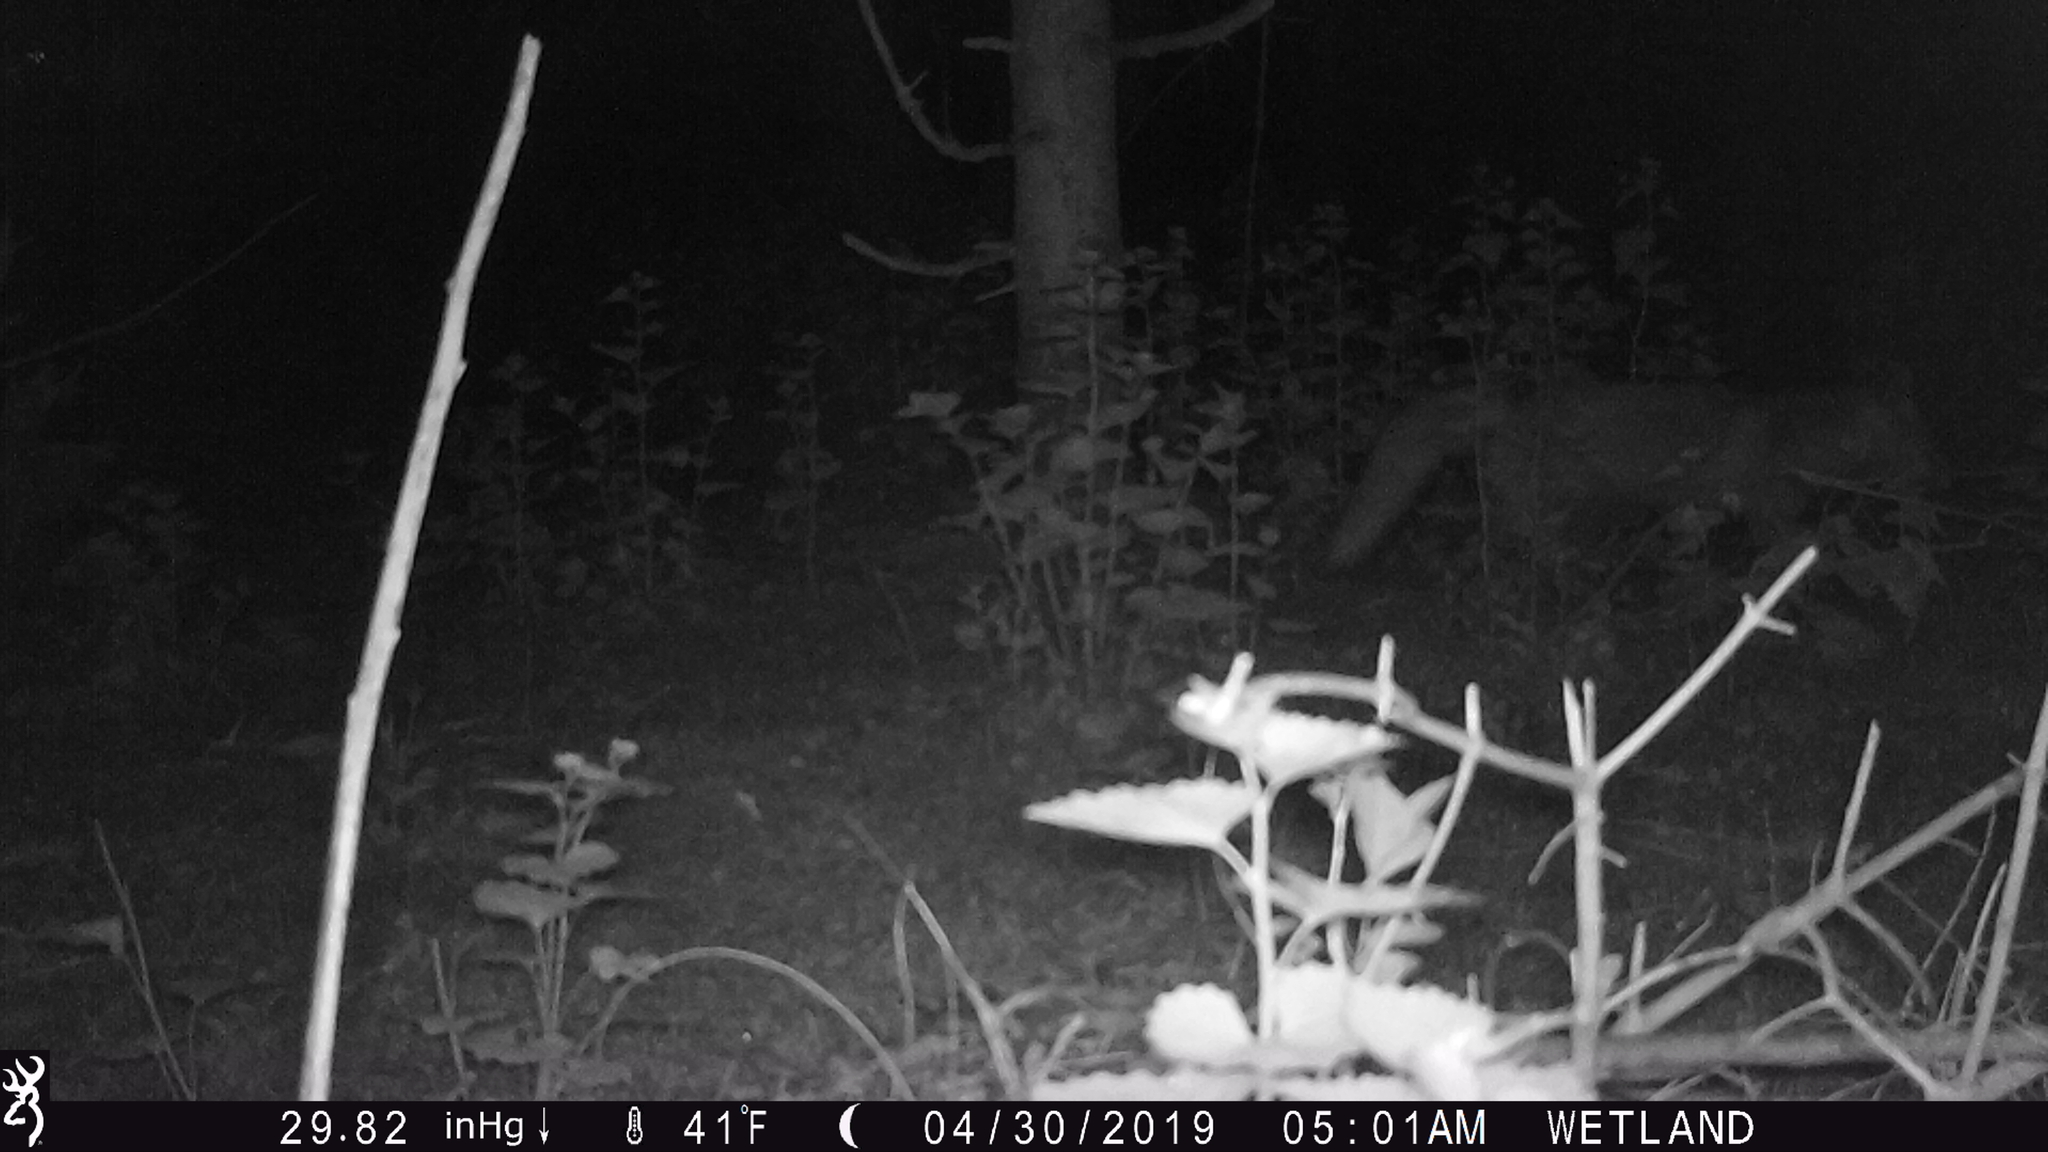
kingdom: Animalia
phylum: Chordata
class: Mammalia
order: Carnivora
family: Canidae
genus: Vulpes
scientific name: Vulpes vulpes
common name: Red fox
